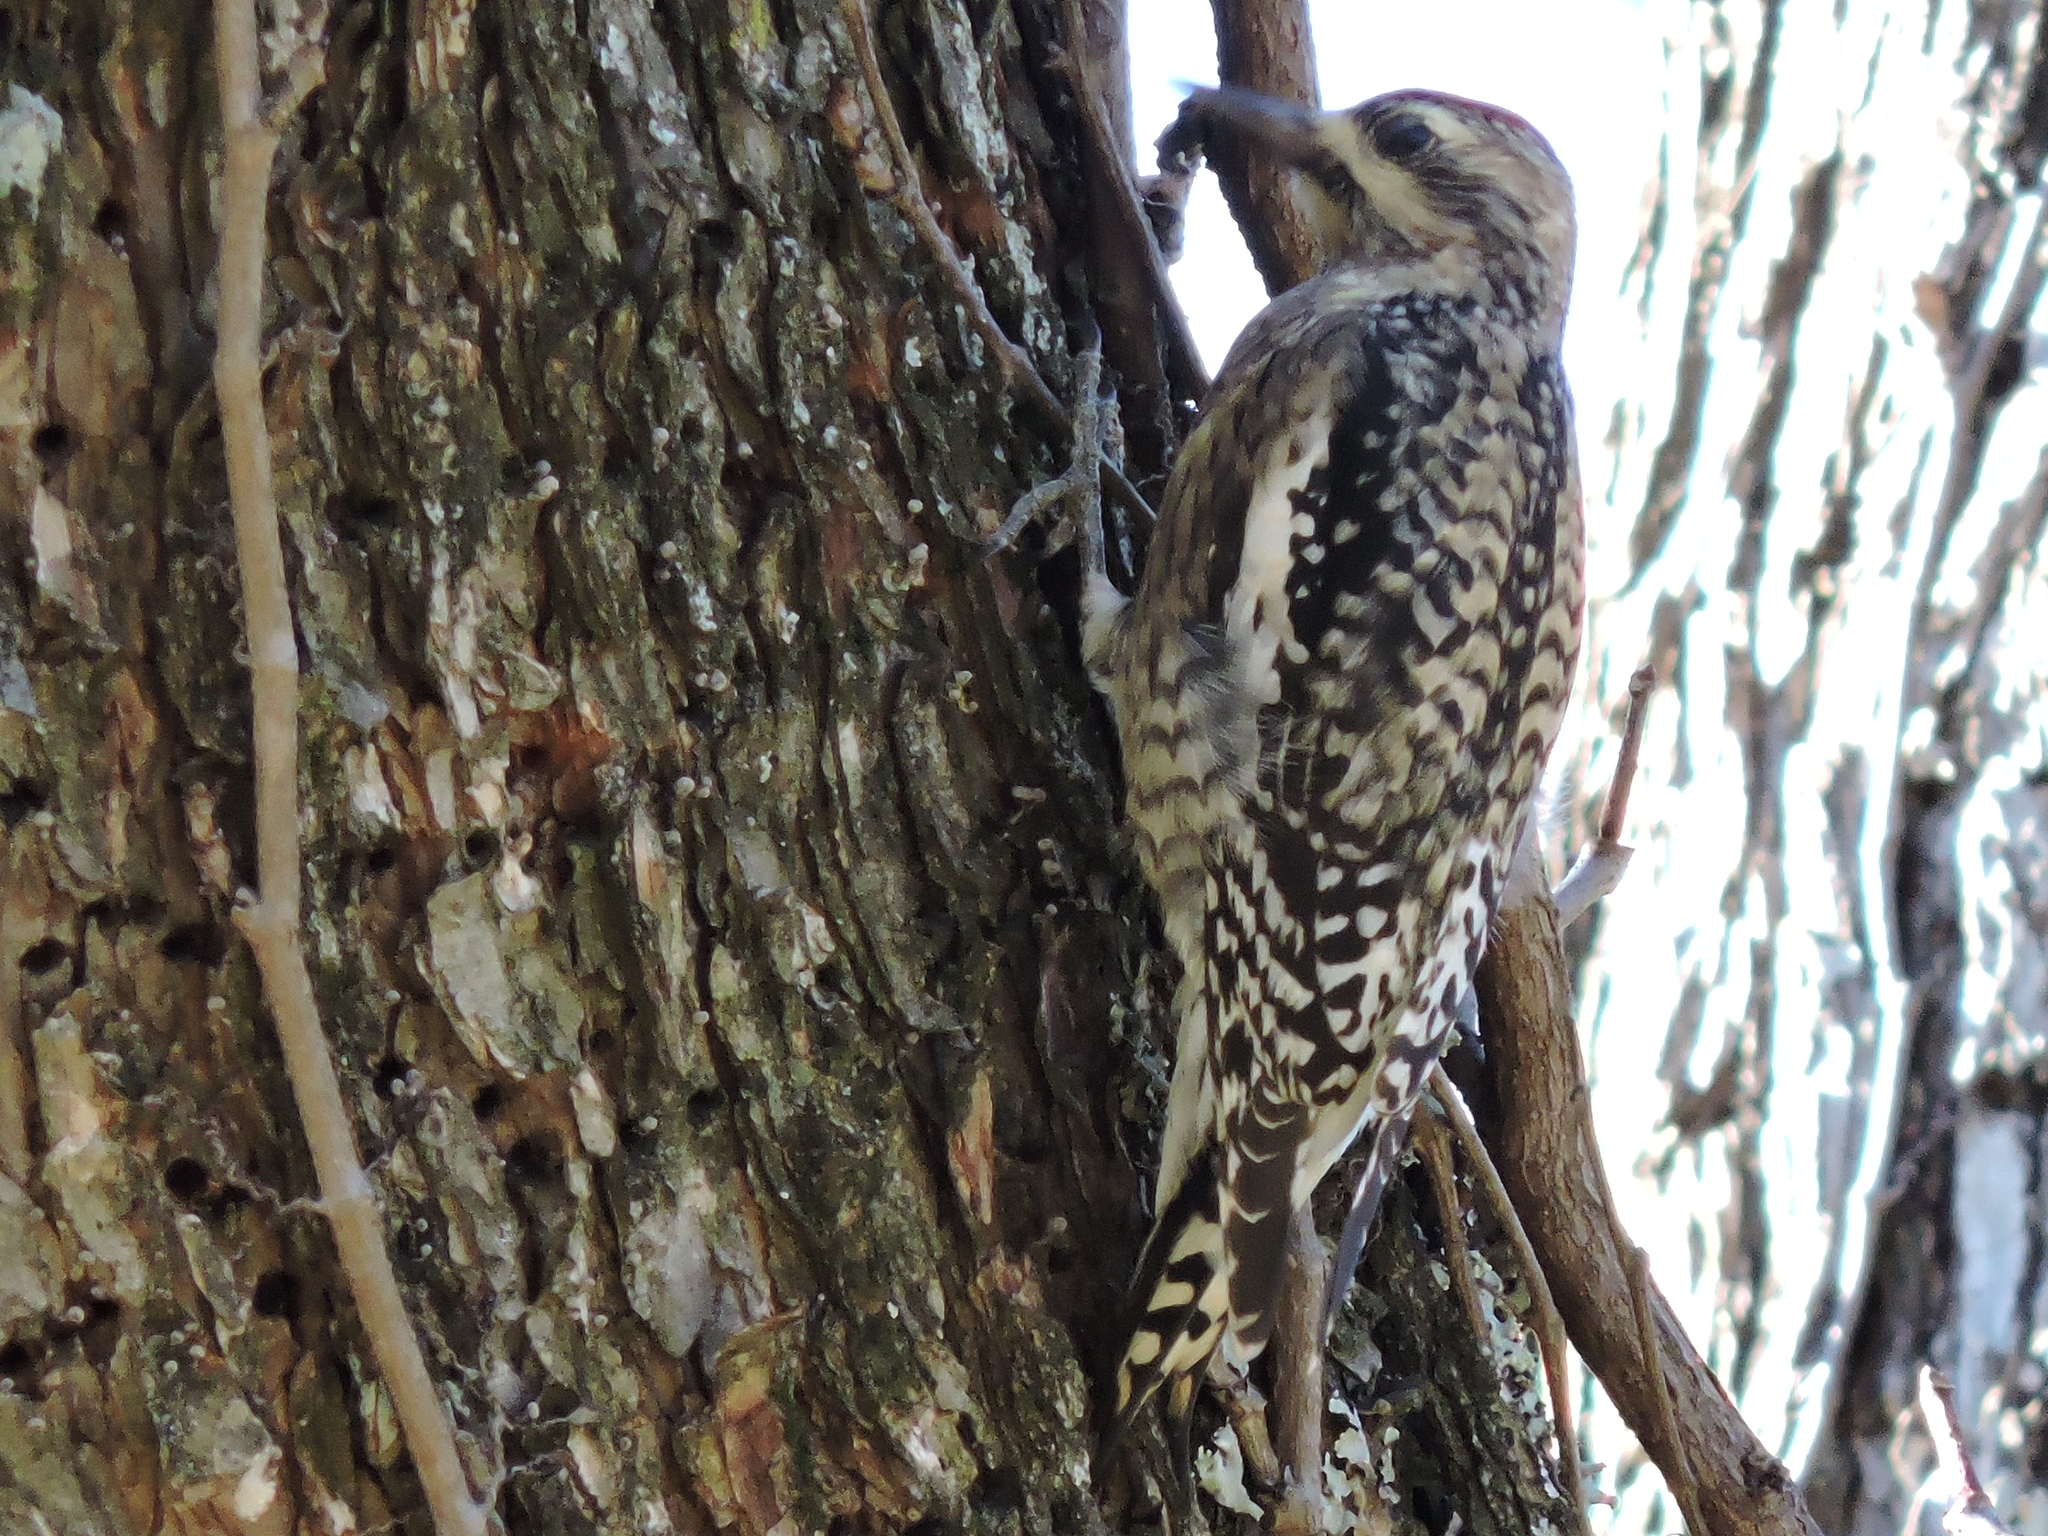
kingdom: Animalia
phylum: Chordata
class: Aves
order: Piciformes
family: Picidae
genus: Sphyrapicus
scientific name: Sphyrapicus varius
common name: Yellow-bellied sapsucker
